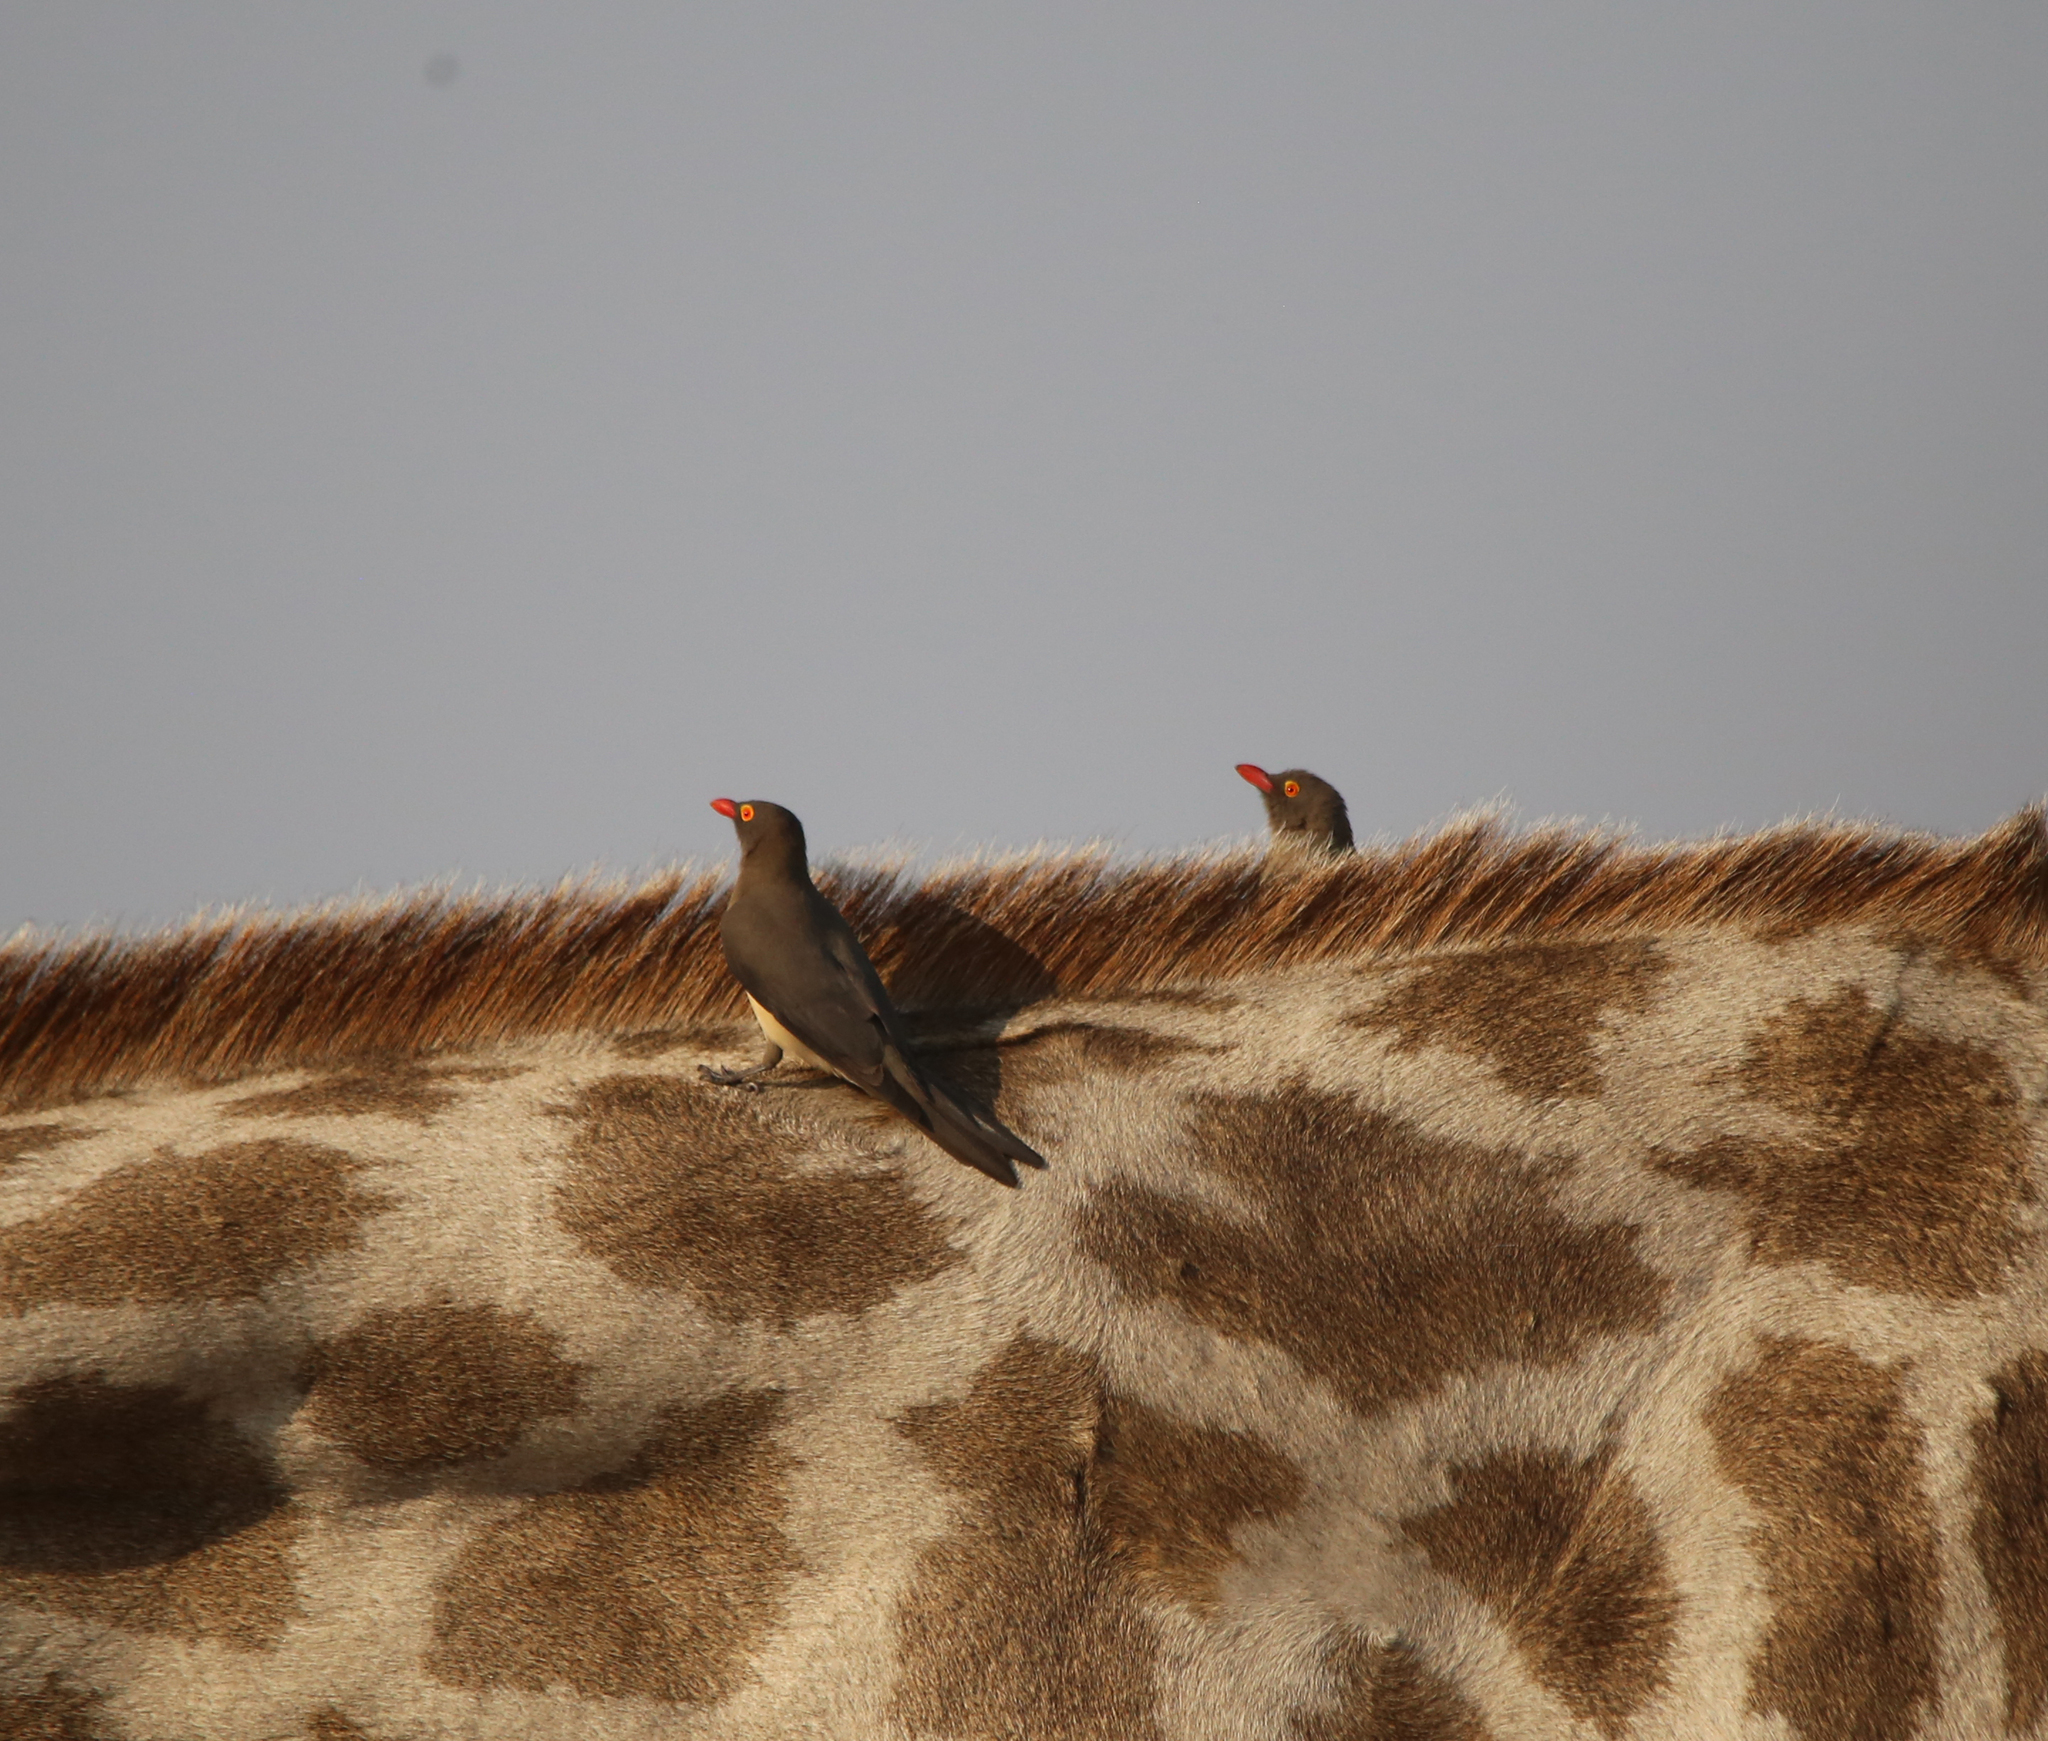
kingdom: Animalia
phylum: Chordata
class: Aves
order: Passeriformes
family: Buphagidae
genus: Buphagus
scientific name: Buphagus erythrorhynchus
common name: Red-billed oxpecker
